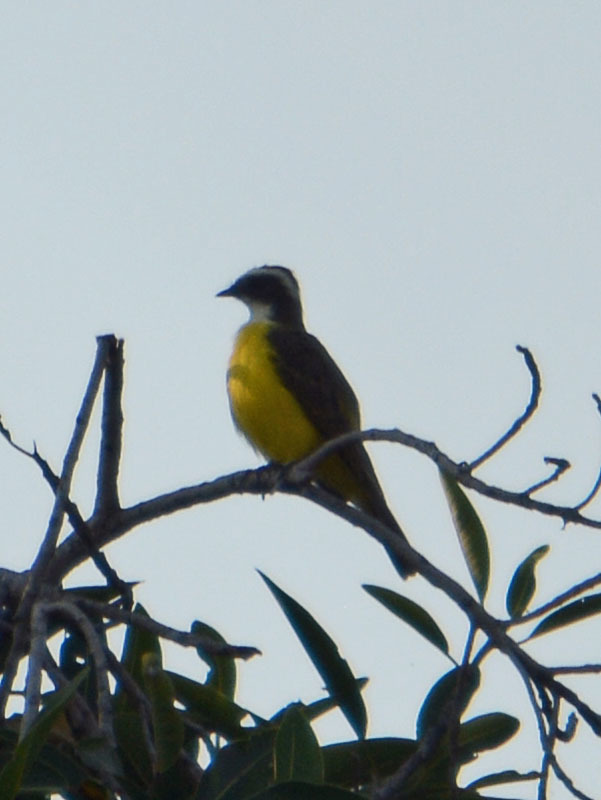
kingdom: Animalia
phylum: Chordata
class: Aves
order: Passeriformes
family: Tyrannidae
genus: Myiozetetes
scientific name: Myiozetetes similis
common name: Social flycatcher
